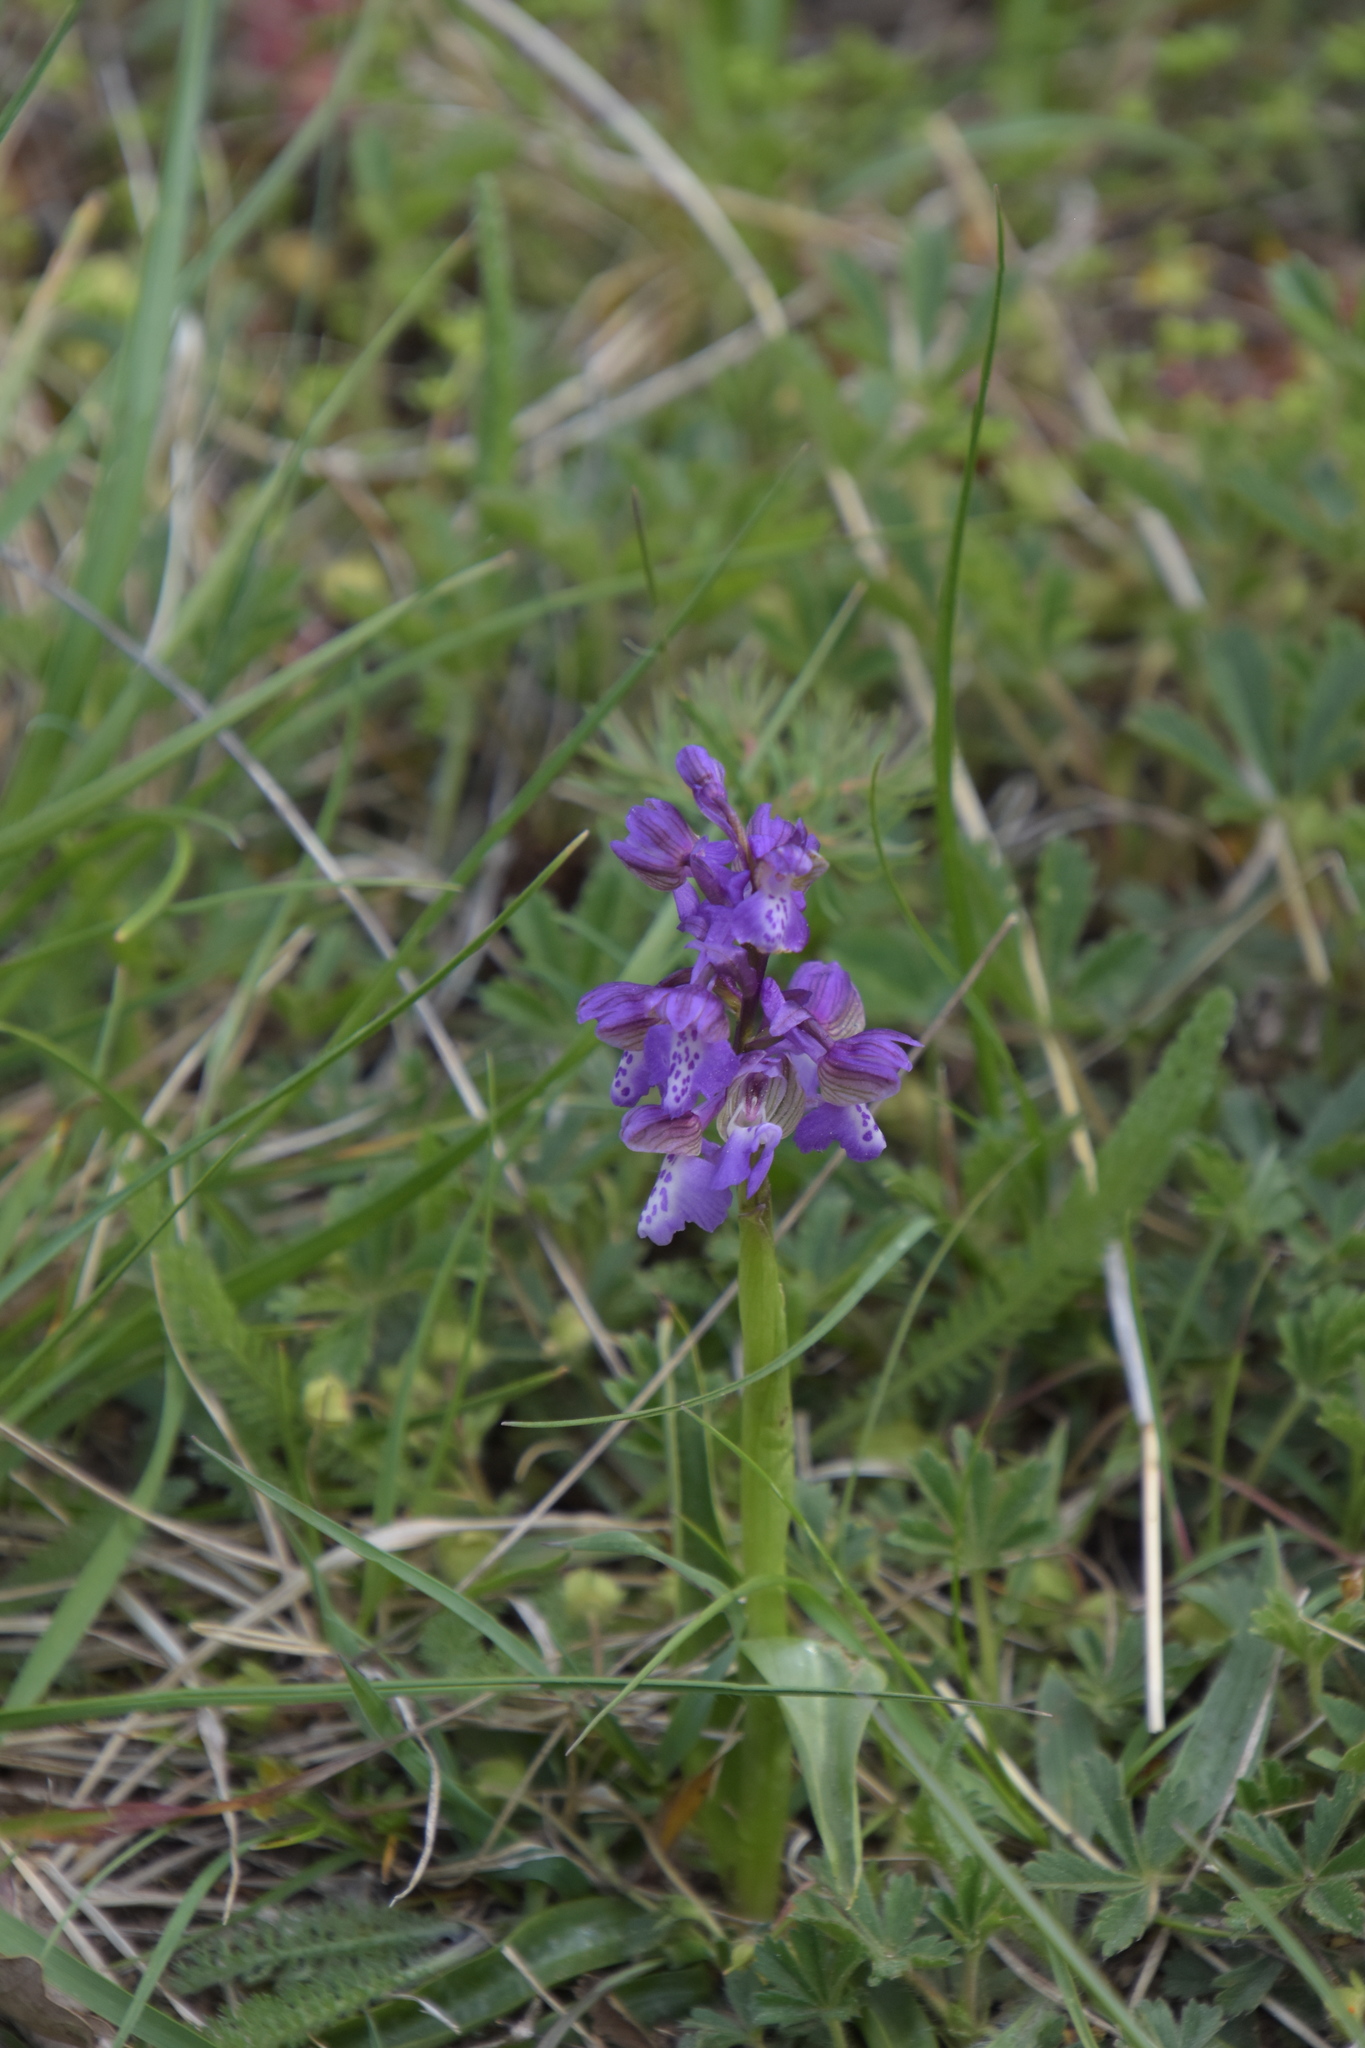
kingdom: Plantae
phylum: Tracheophyta
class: Liliopsida
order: Asparagales
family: Orchidaceae
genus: Anacamptis
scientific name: Anacamptis morio
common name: Green-winged orchid
